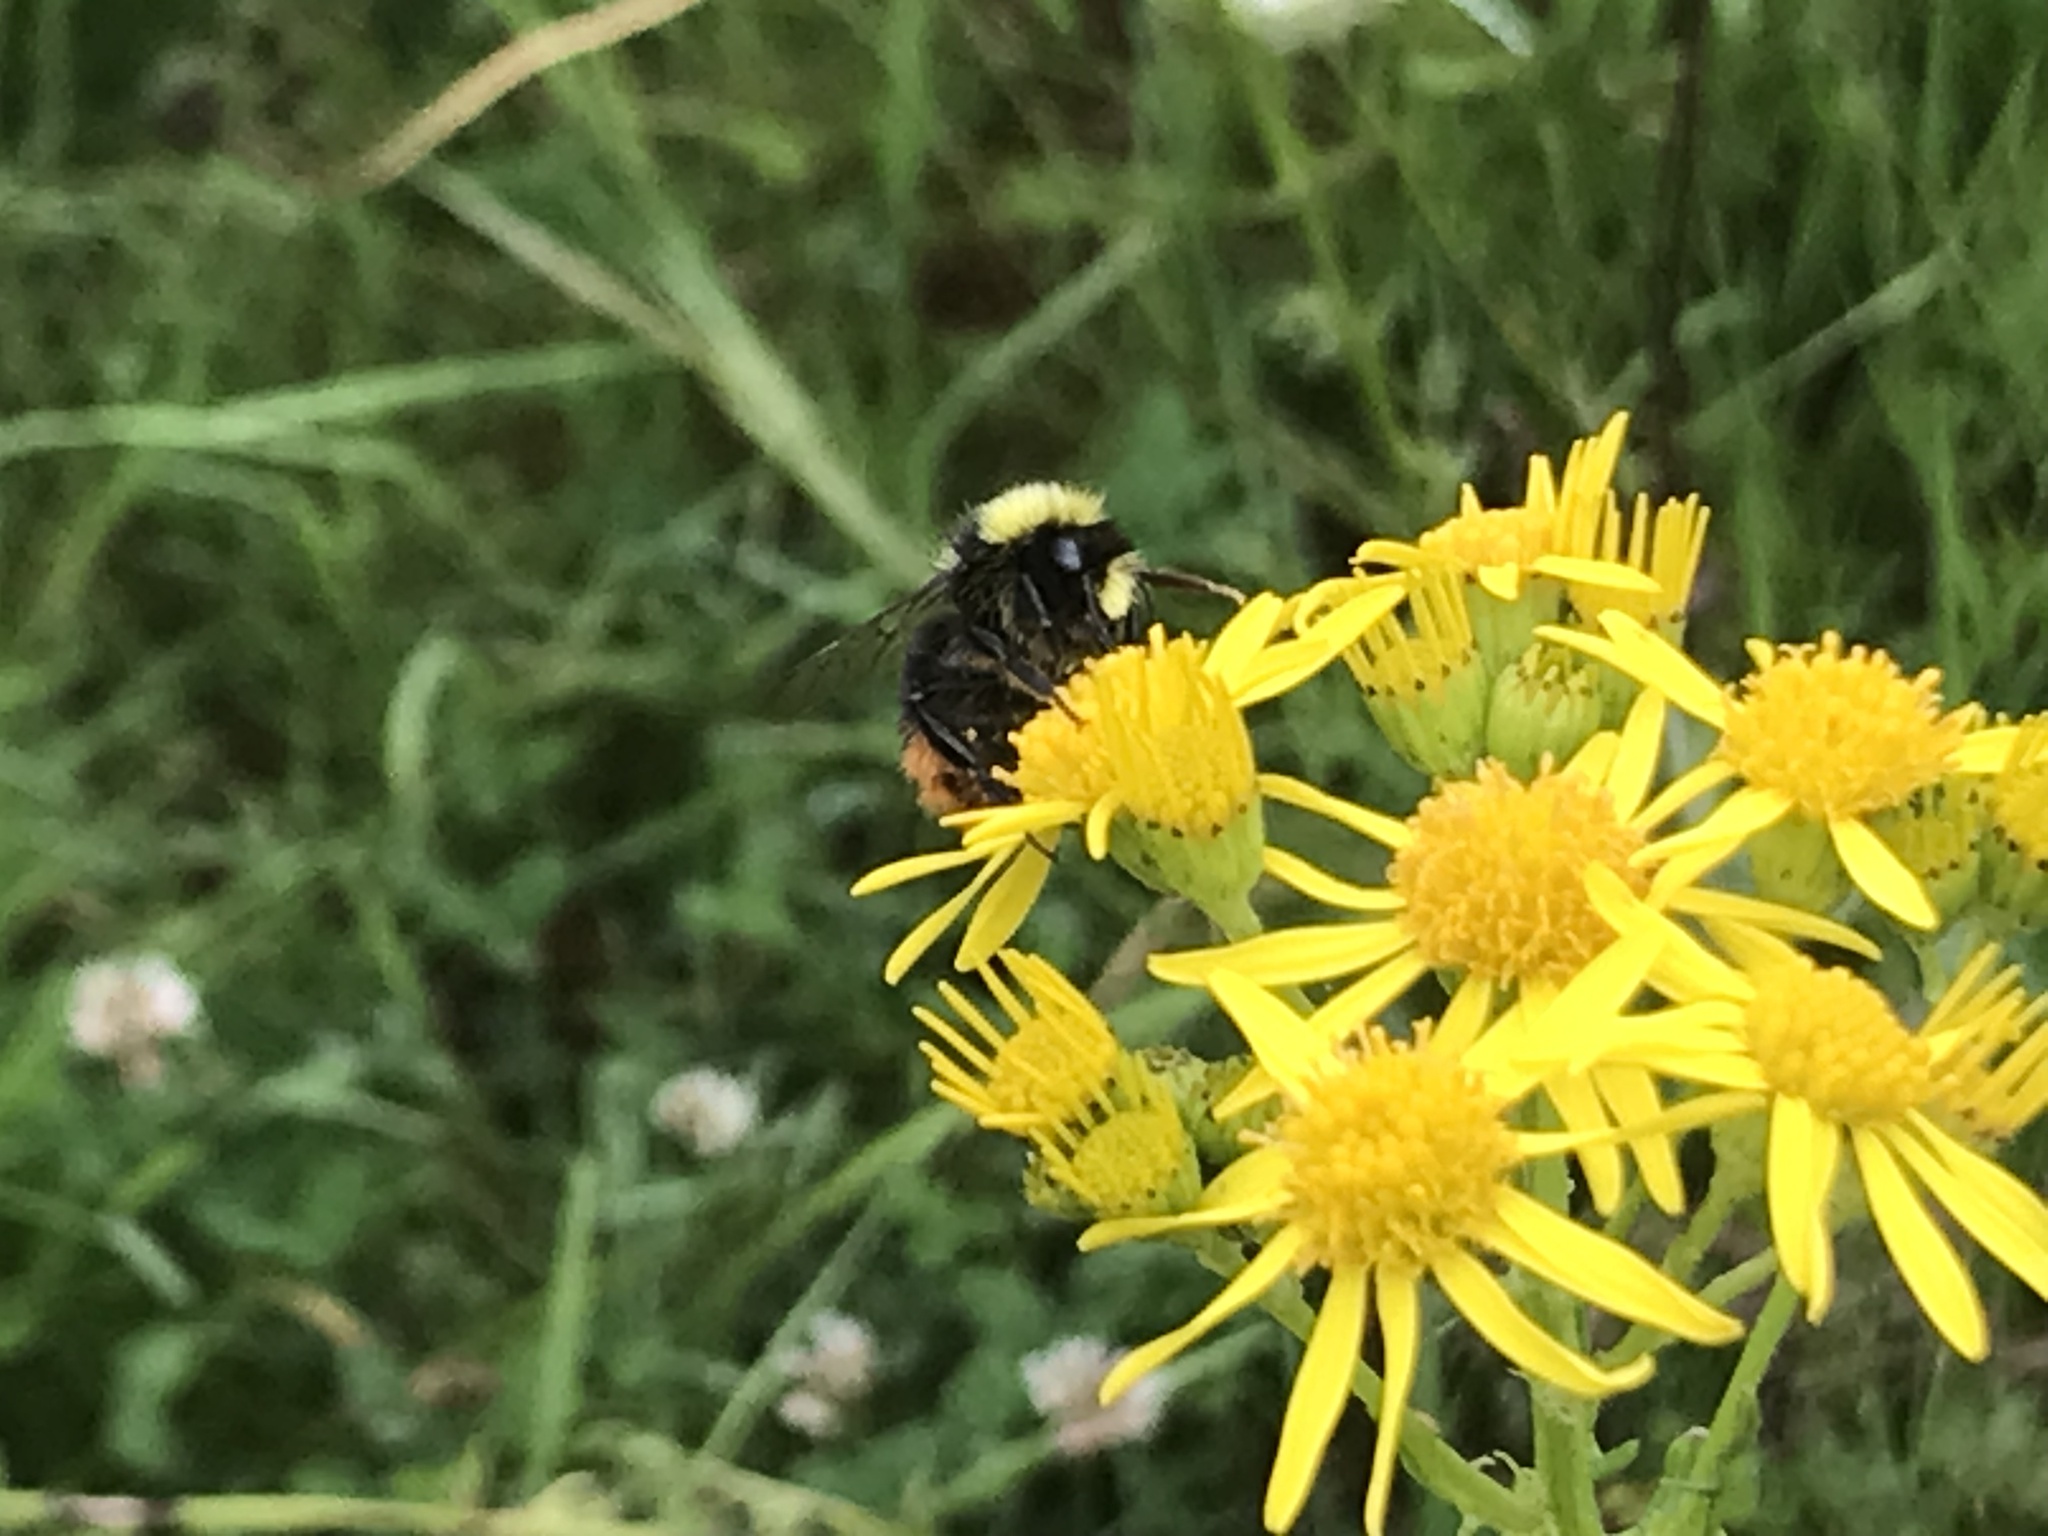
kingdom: Animalia
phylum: Arthropoda
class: Insecta
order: Hymenoptera
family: Apidae
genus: Bombus
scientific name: Bombus lapidarius
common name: Large red-tailed humble-bee
